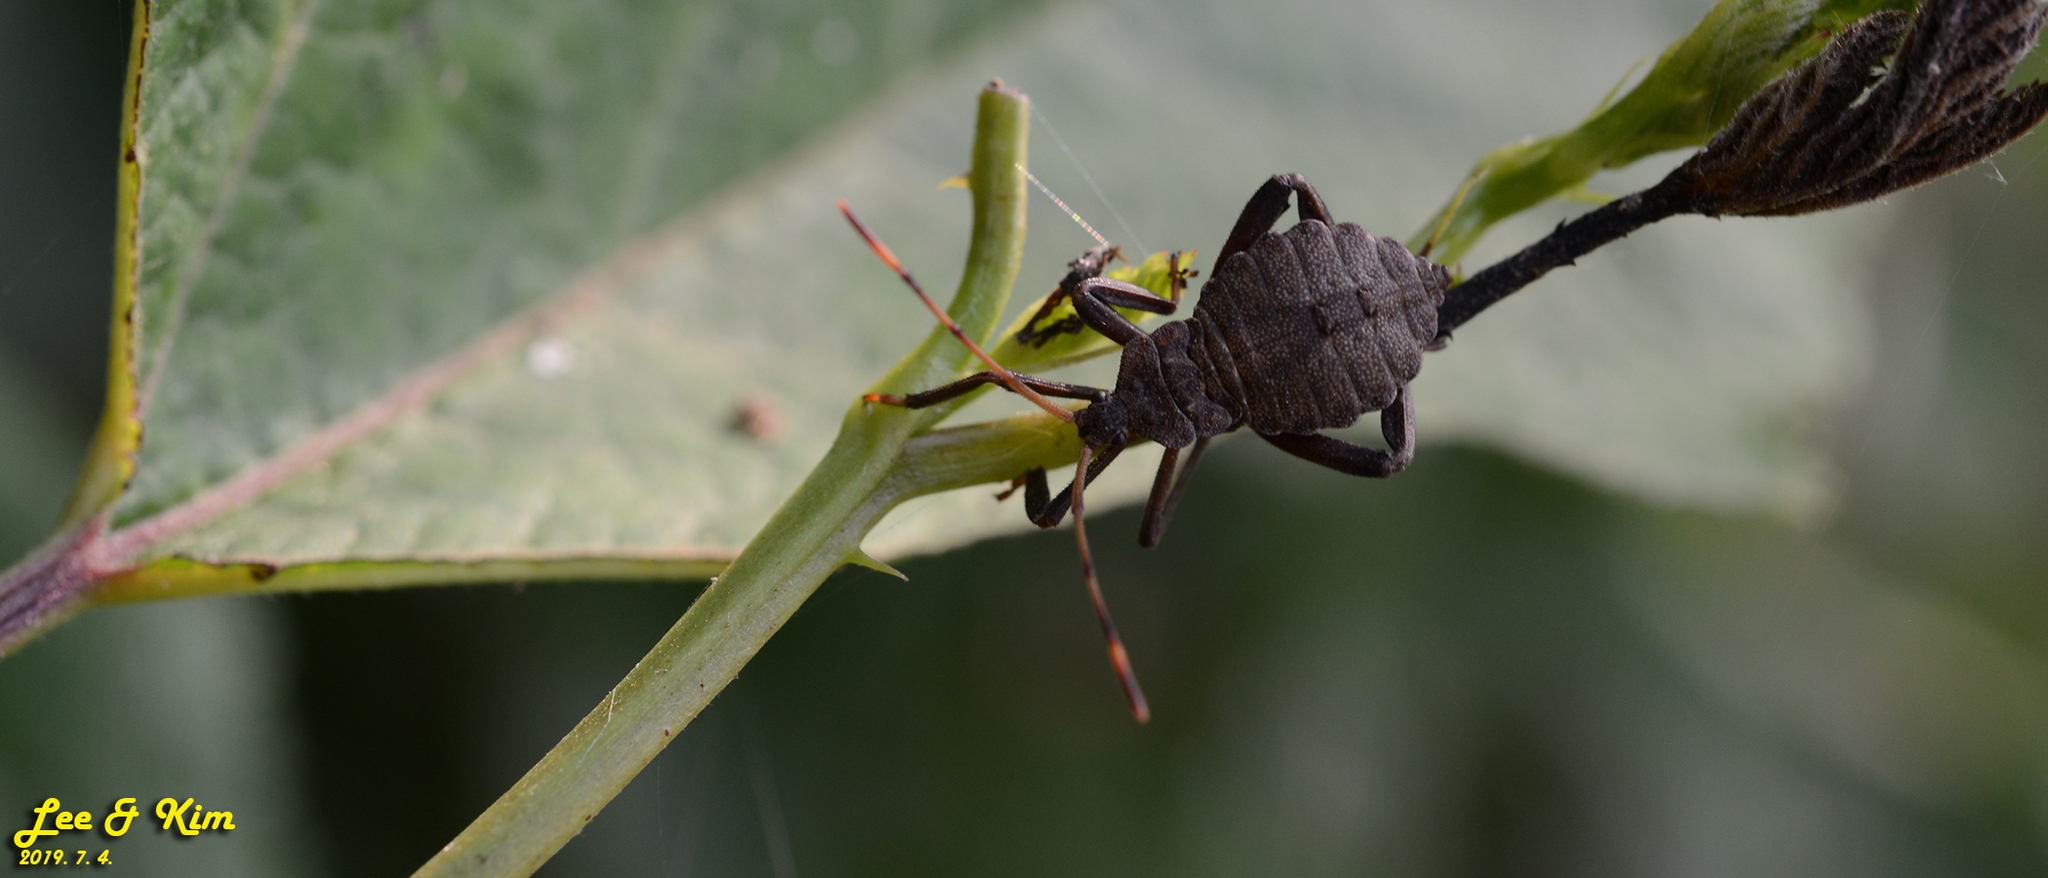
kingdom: Animalia
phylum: Arthropoda
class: Insecta
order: Hemiptera
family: Coreidae
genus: Molipteryx
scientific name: Molipteryx fuliginosa
